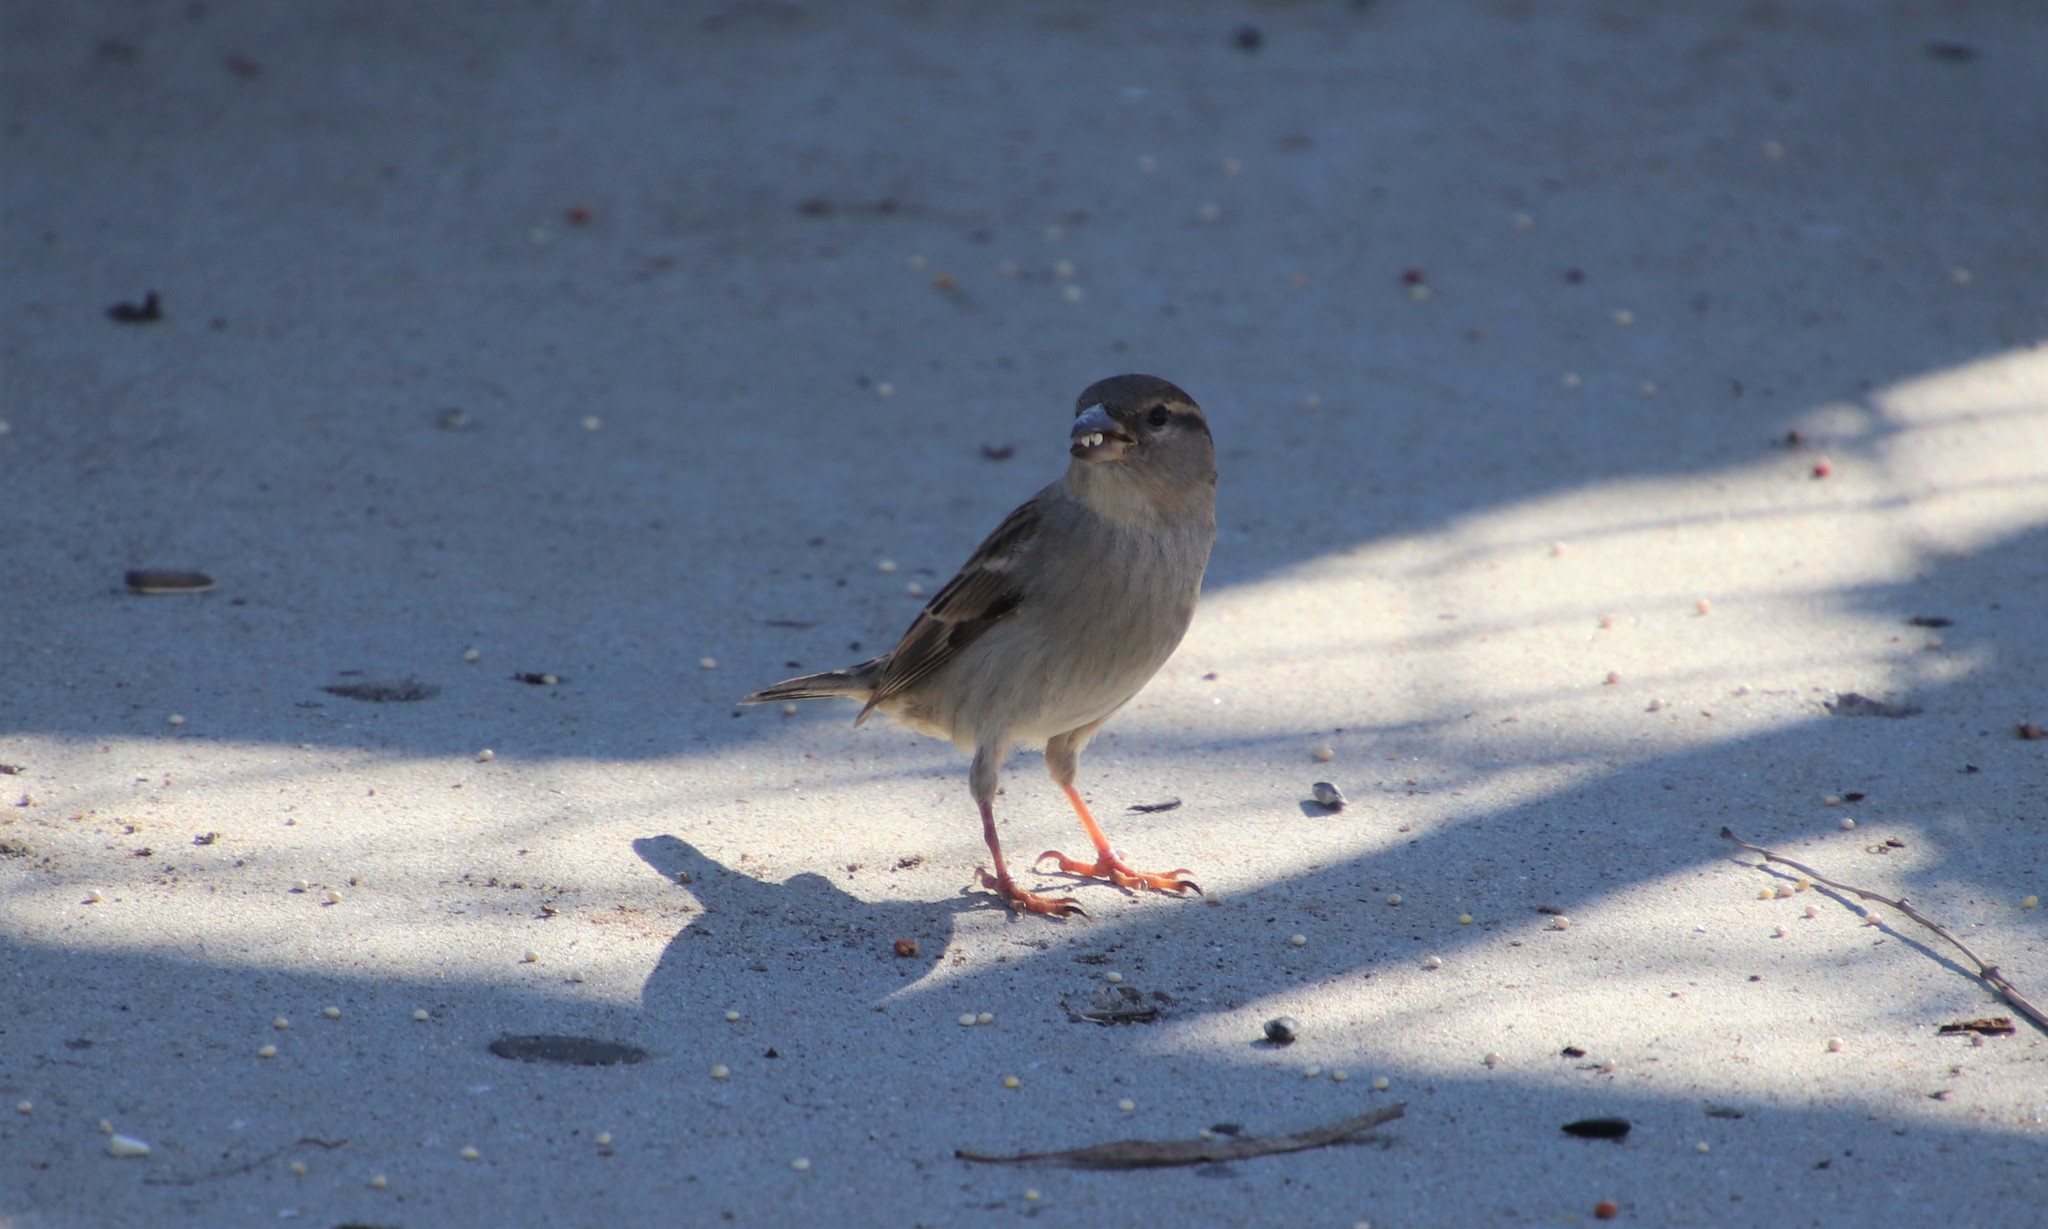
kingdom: Animalia
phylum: Chordata
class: Aves
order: Passeriformes
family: Passeridae
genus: Passer
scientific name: Passer domesticus
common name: House sparrow
